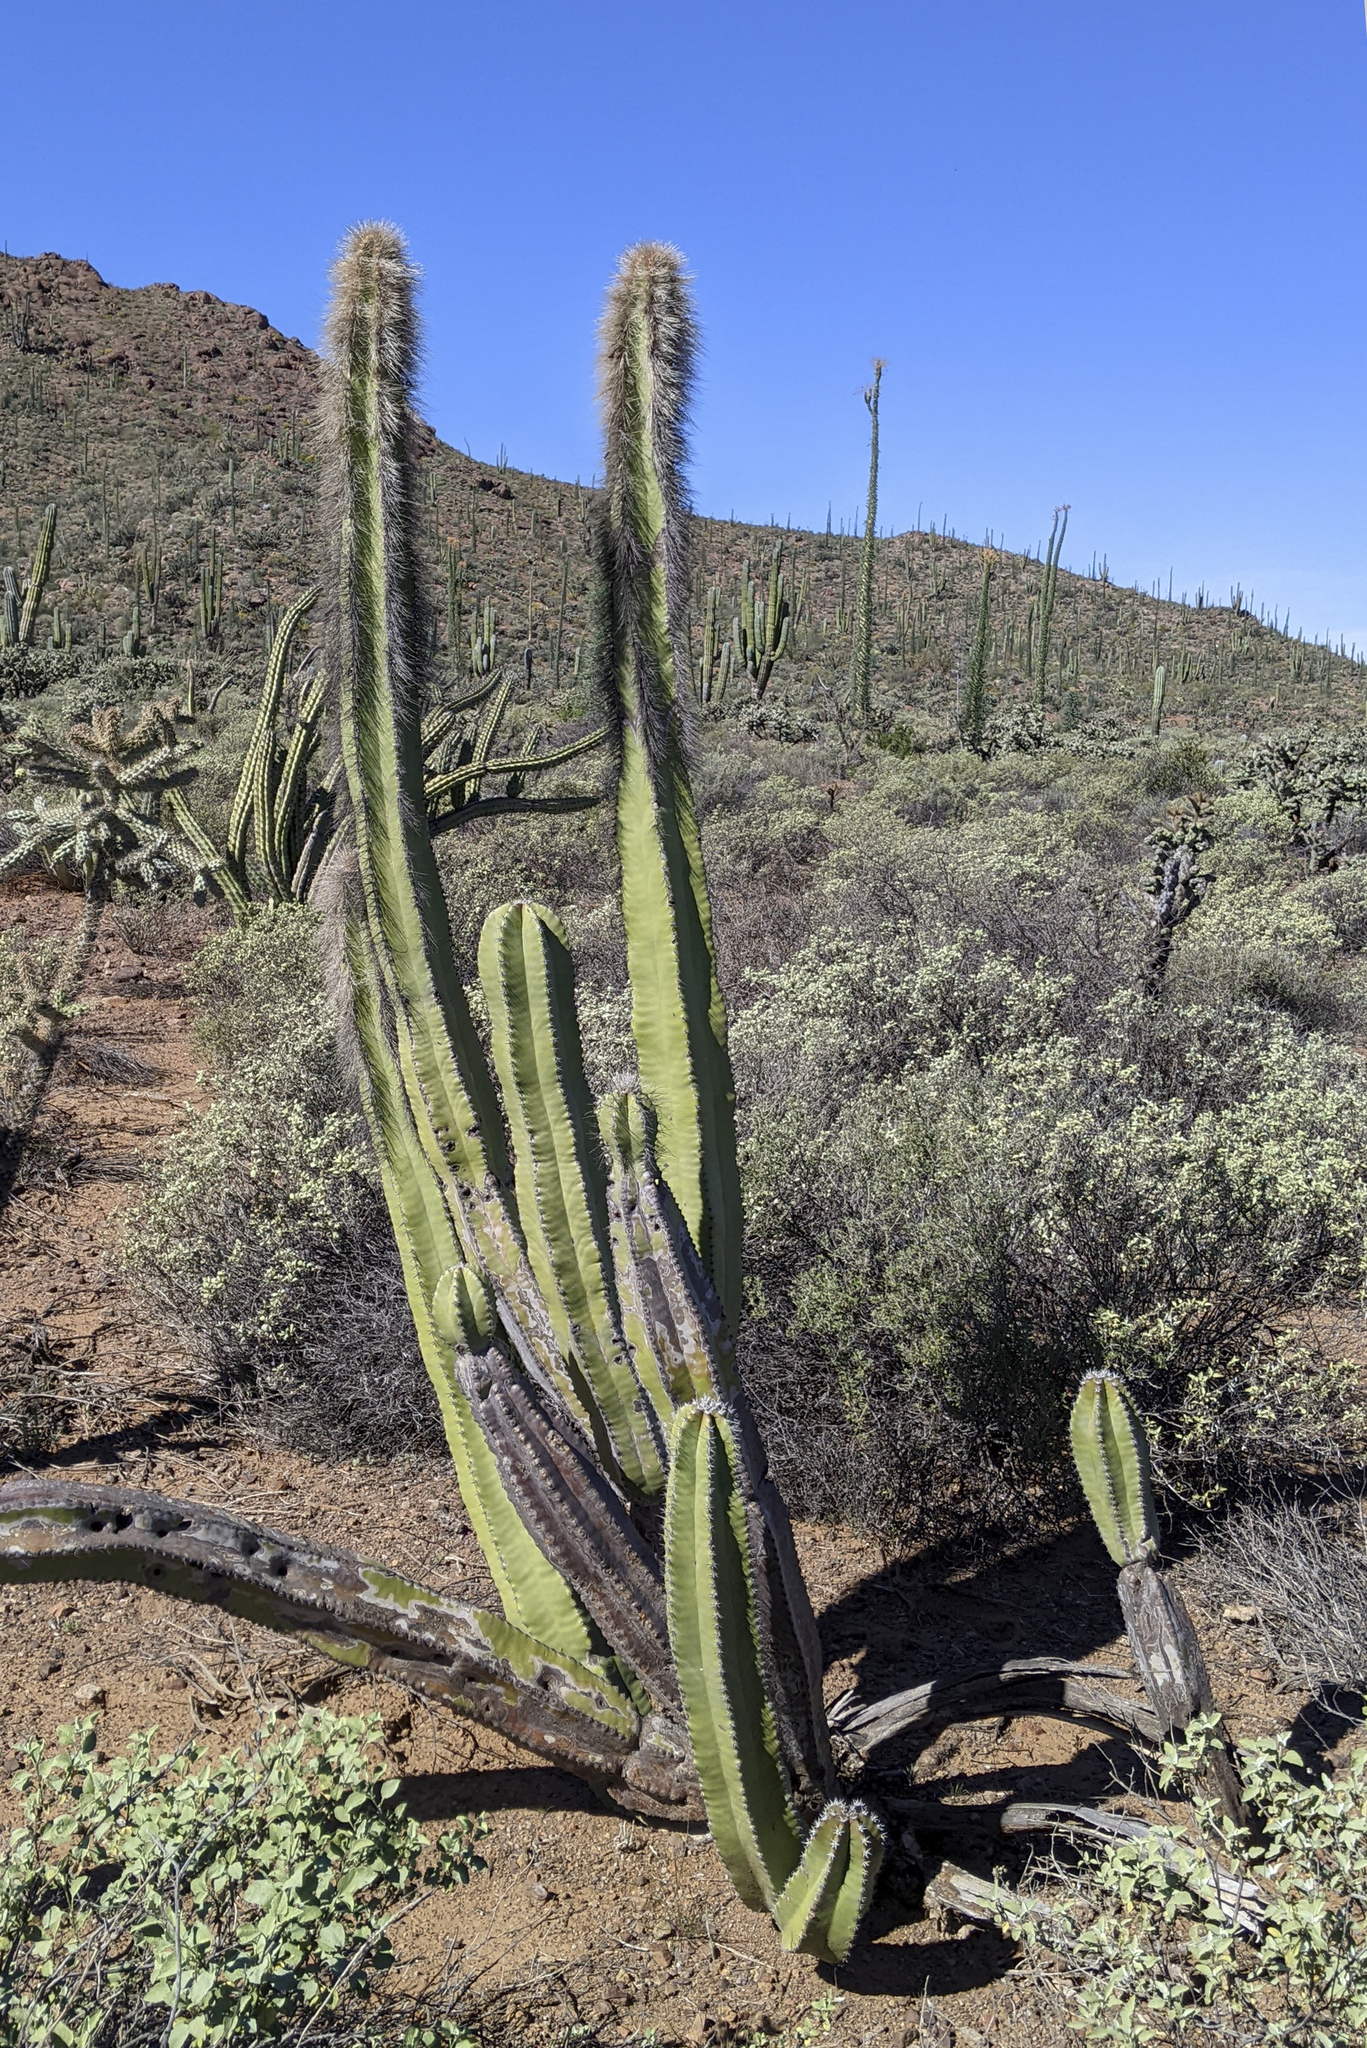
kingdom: Plantae
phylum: Tracheophyta
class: Magnoliopsida
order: Caryophyllales
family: Cactaceae
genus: Pachycereus
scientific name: Pachycereus schottii
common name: Senita cactus
